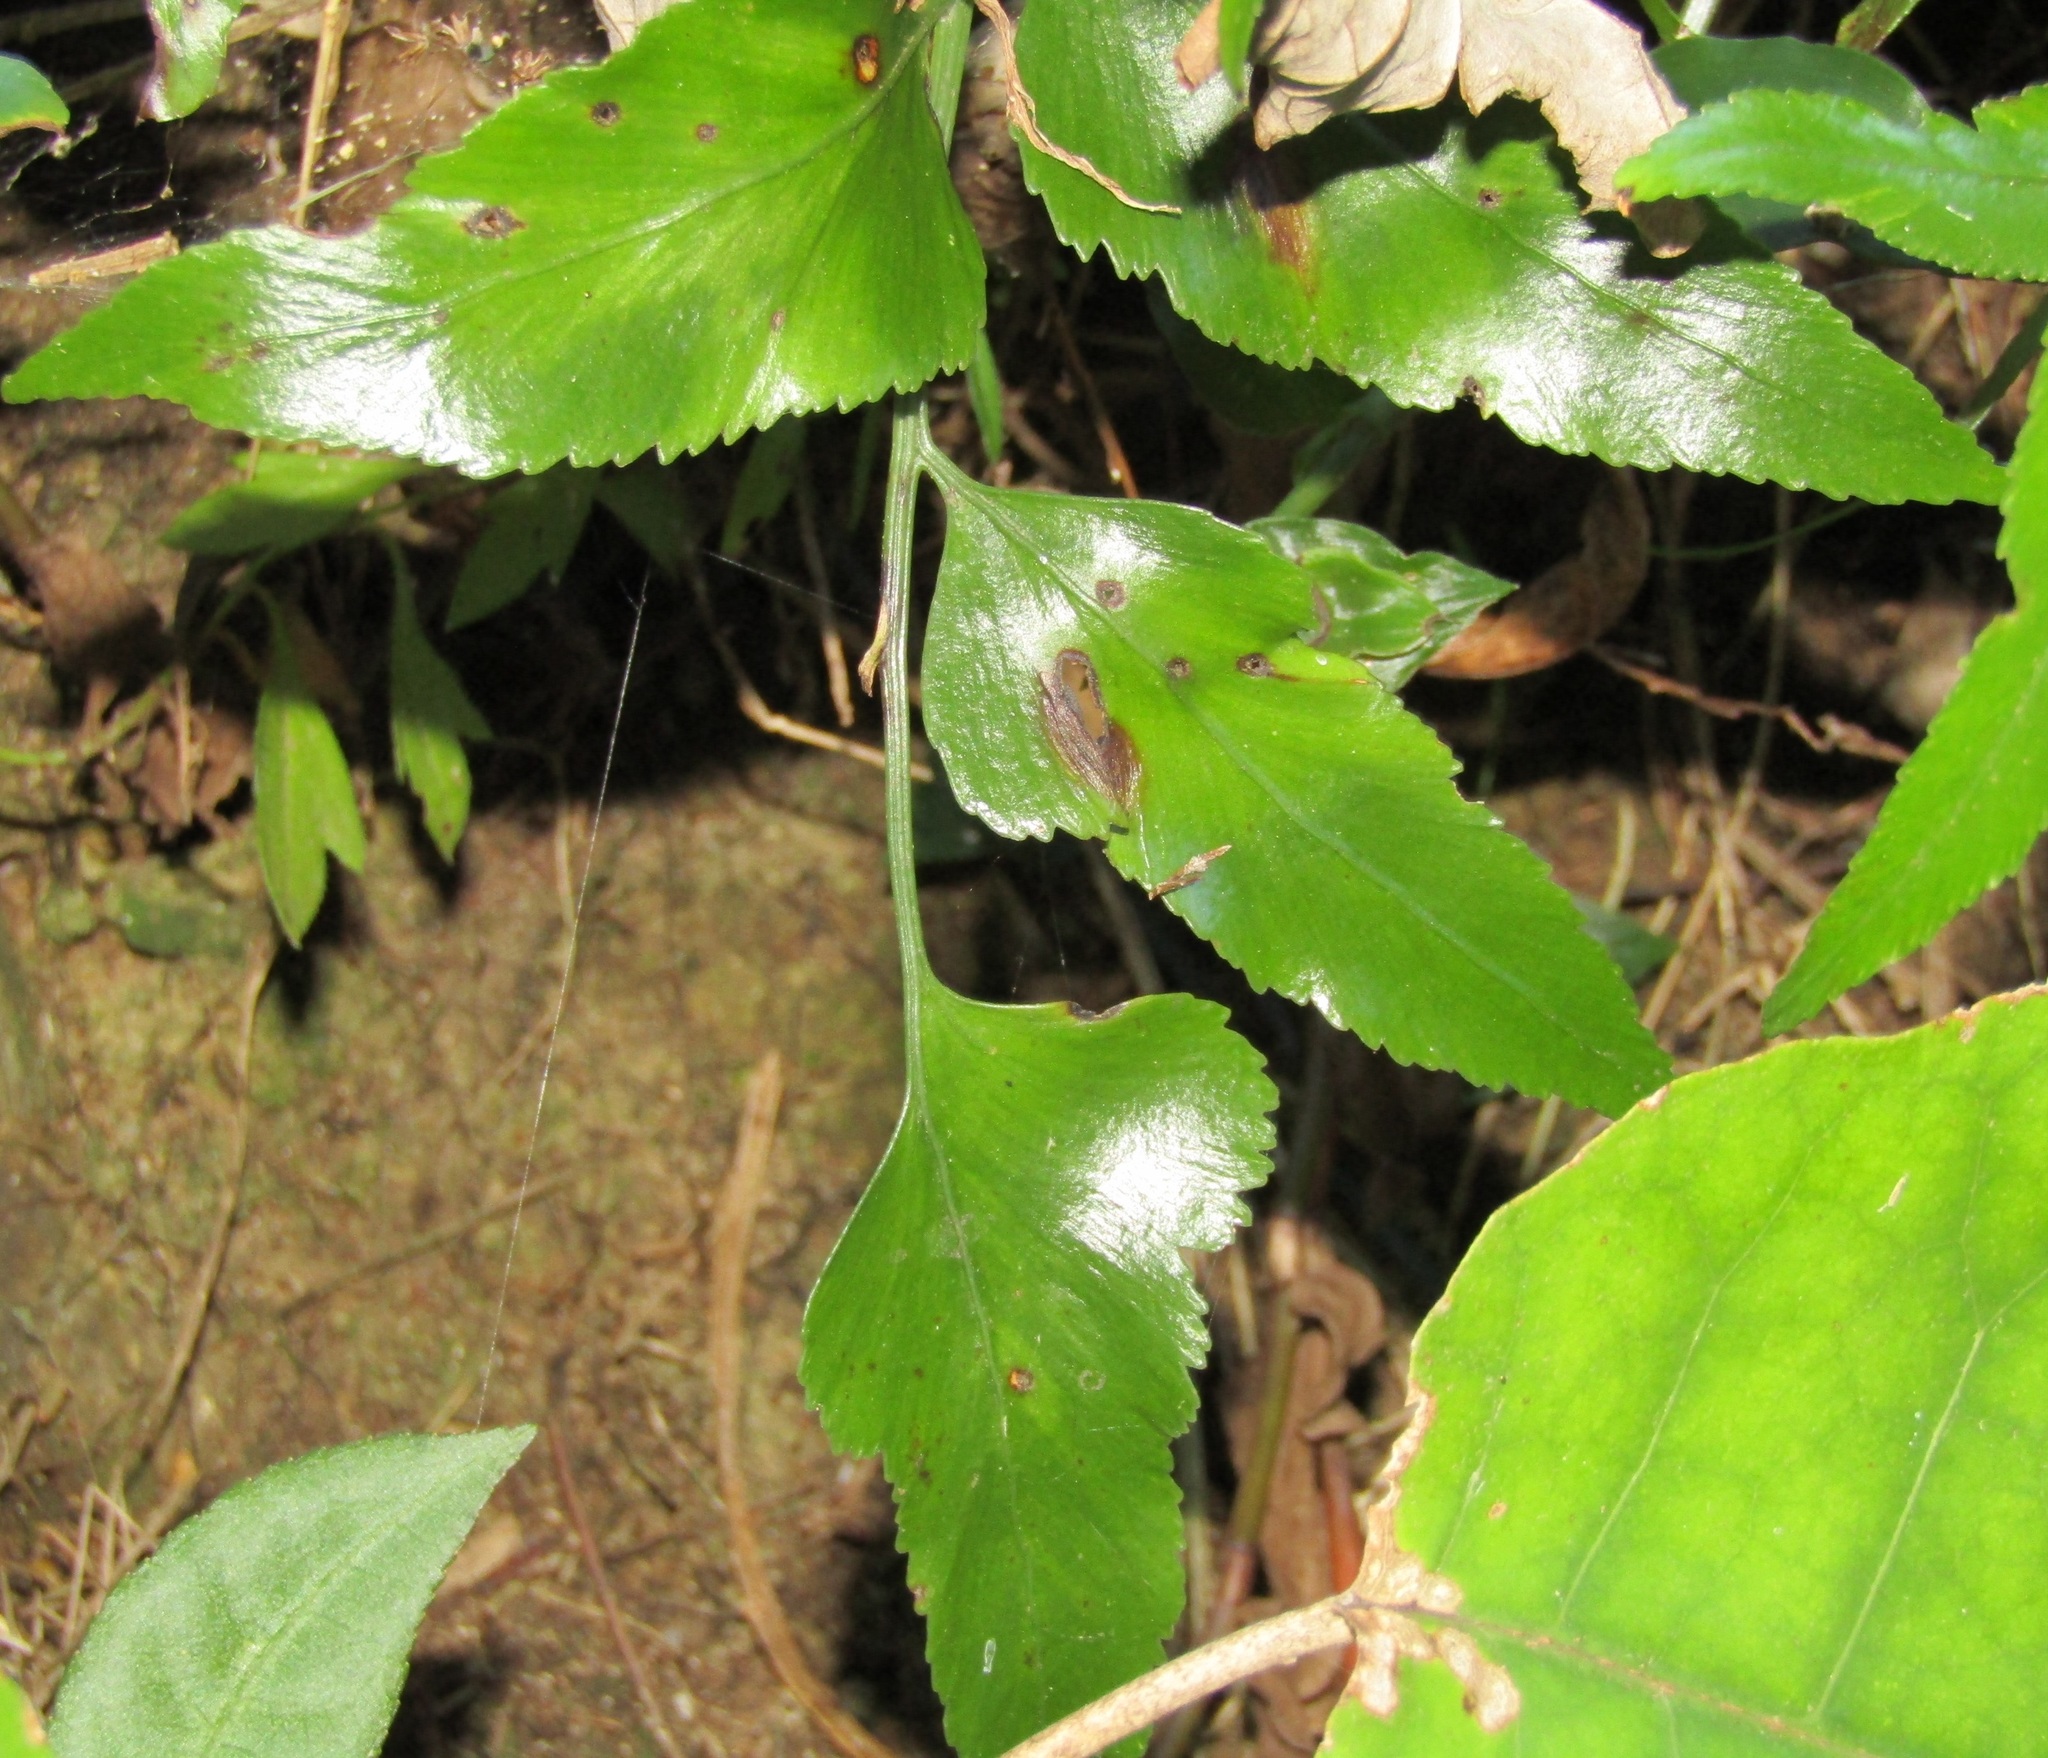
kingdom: Plantae
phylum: Tracheophyta
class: Polypodiopsida
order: Polypodiales
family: Aspleniaceae
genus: Asplenium
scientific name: Asplenium oblongifolium
